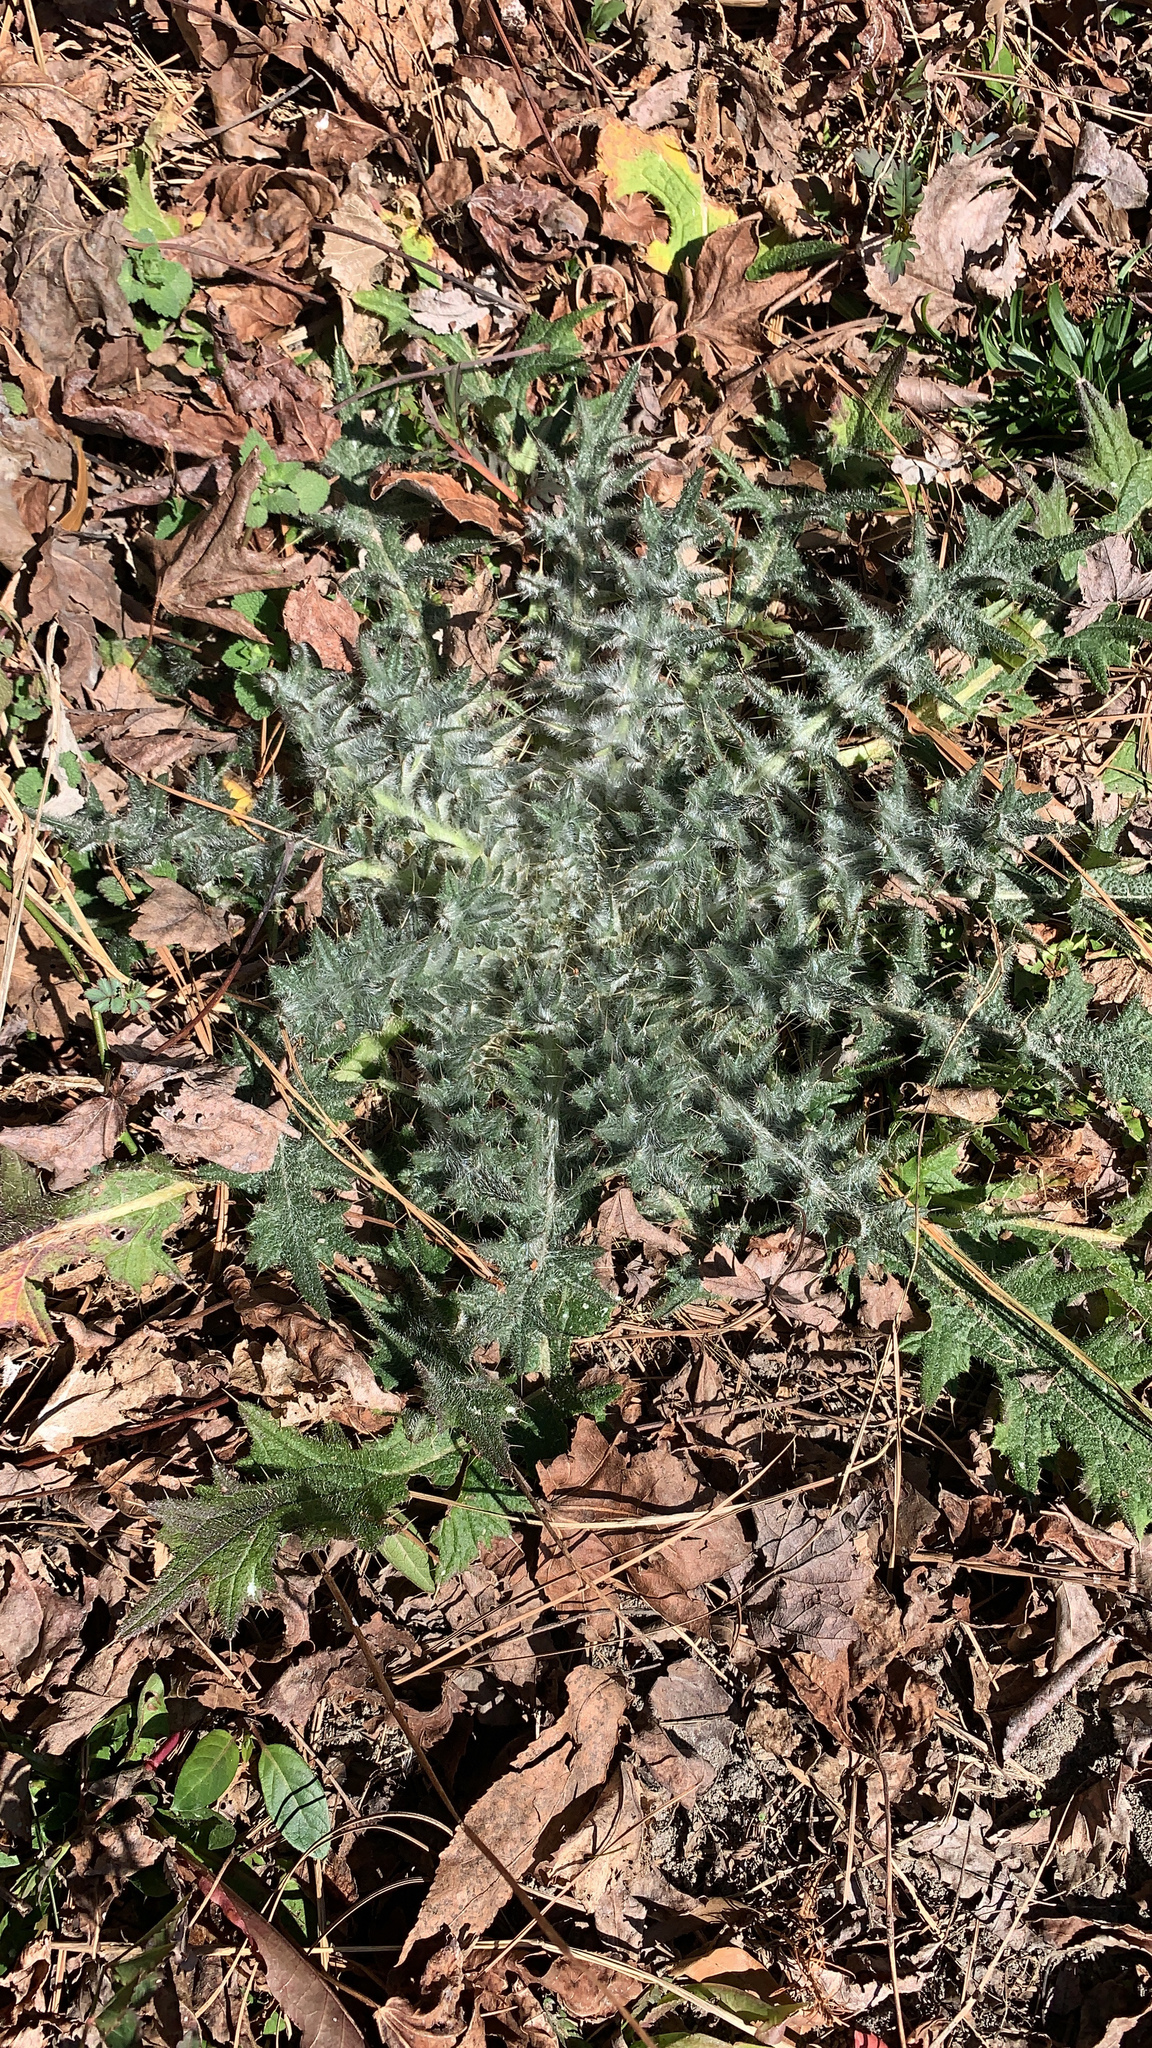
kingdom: Plantae
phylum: Tracheophyta
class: Magnoliopsida
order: Asterales
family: Asteraceae
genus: Cirsium
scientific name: Cirsium vulgare
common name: Bull thistle
